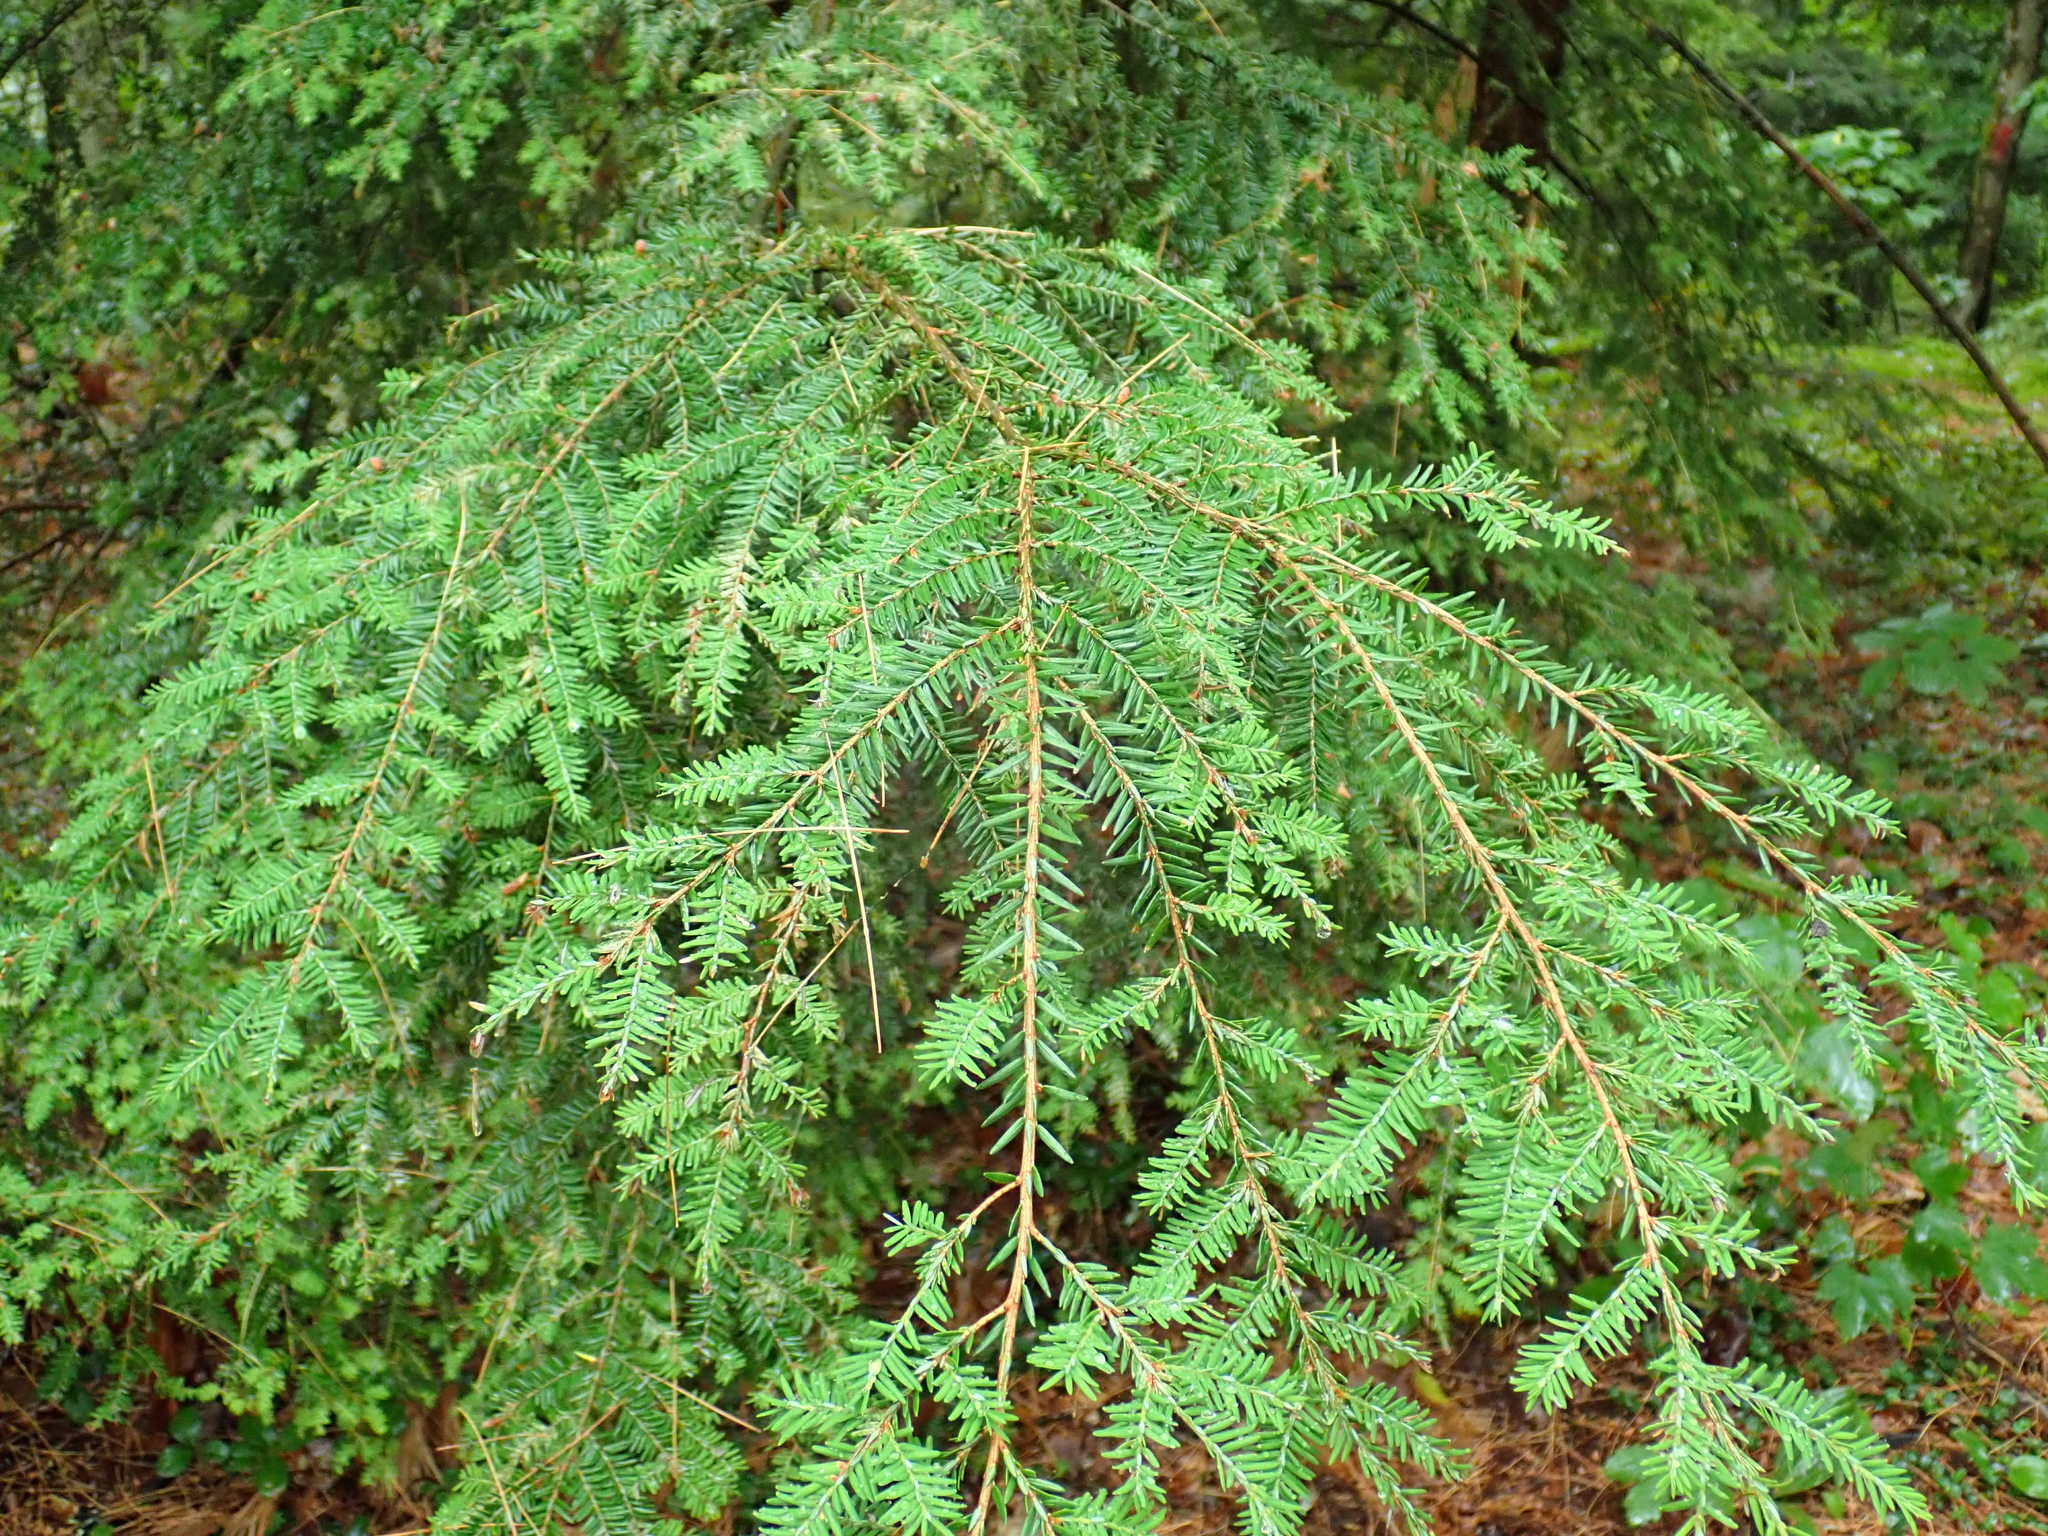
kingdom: Plantae
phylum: Tracheophyta
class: Pinopsida
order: Pinales
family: Pinaceae
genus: Tsuga
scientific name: Tsuga canadensis
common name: Eastern hemlock
